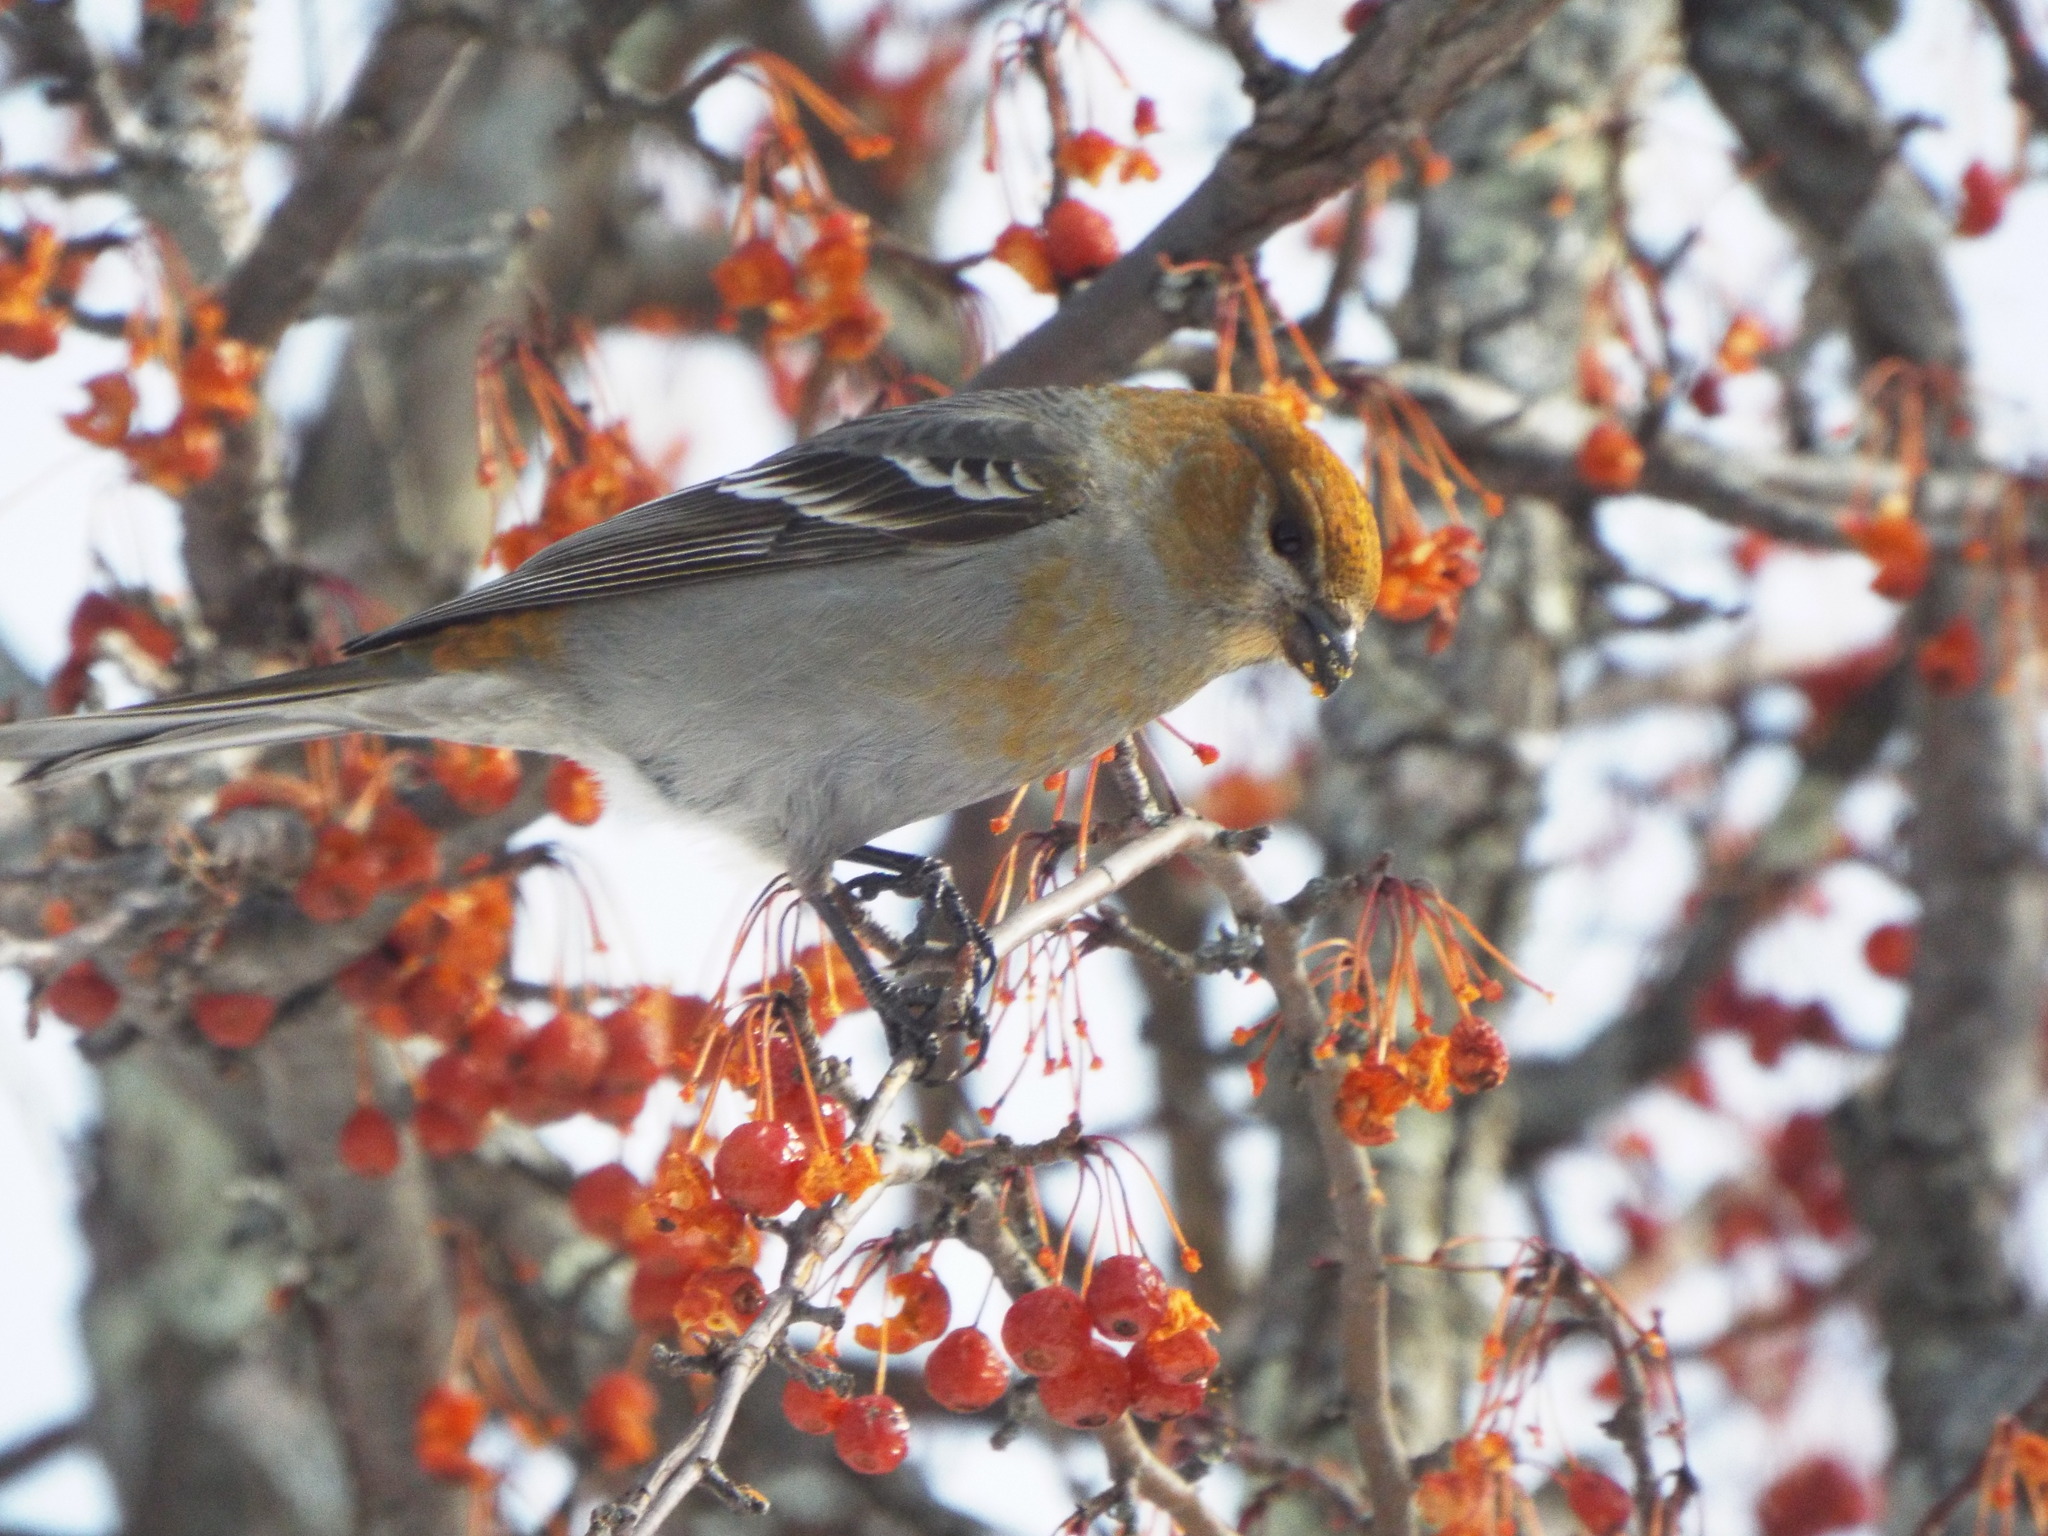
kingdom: Animalia
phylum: Chordata
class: Aves
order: Passeriformes
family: Fringillidae
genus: Pinicola
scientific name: Pinicola enucleator
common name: Pine grosbeak
